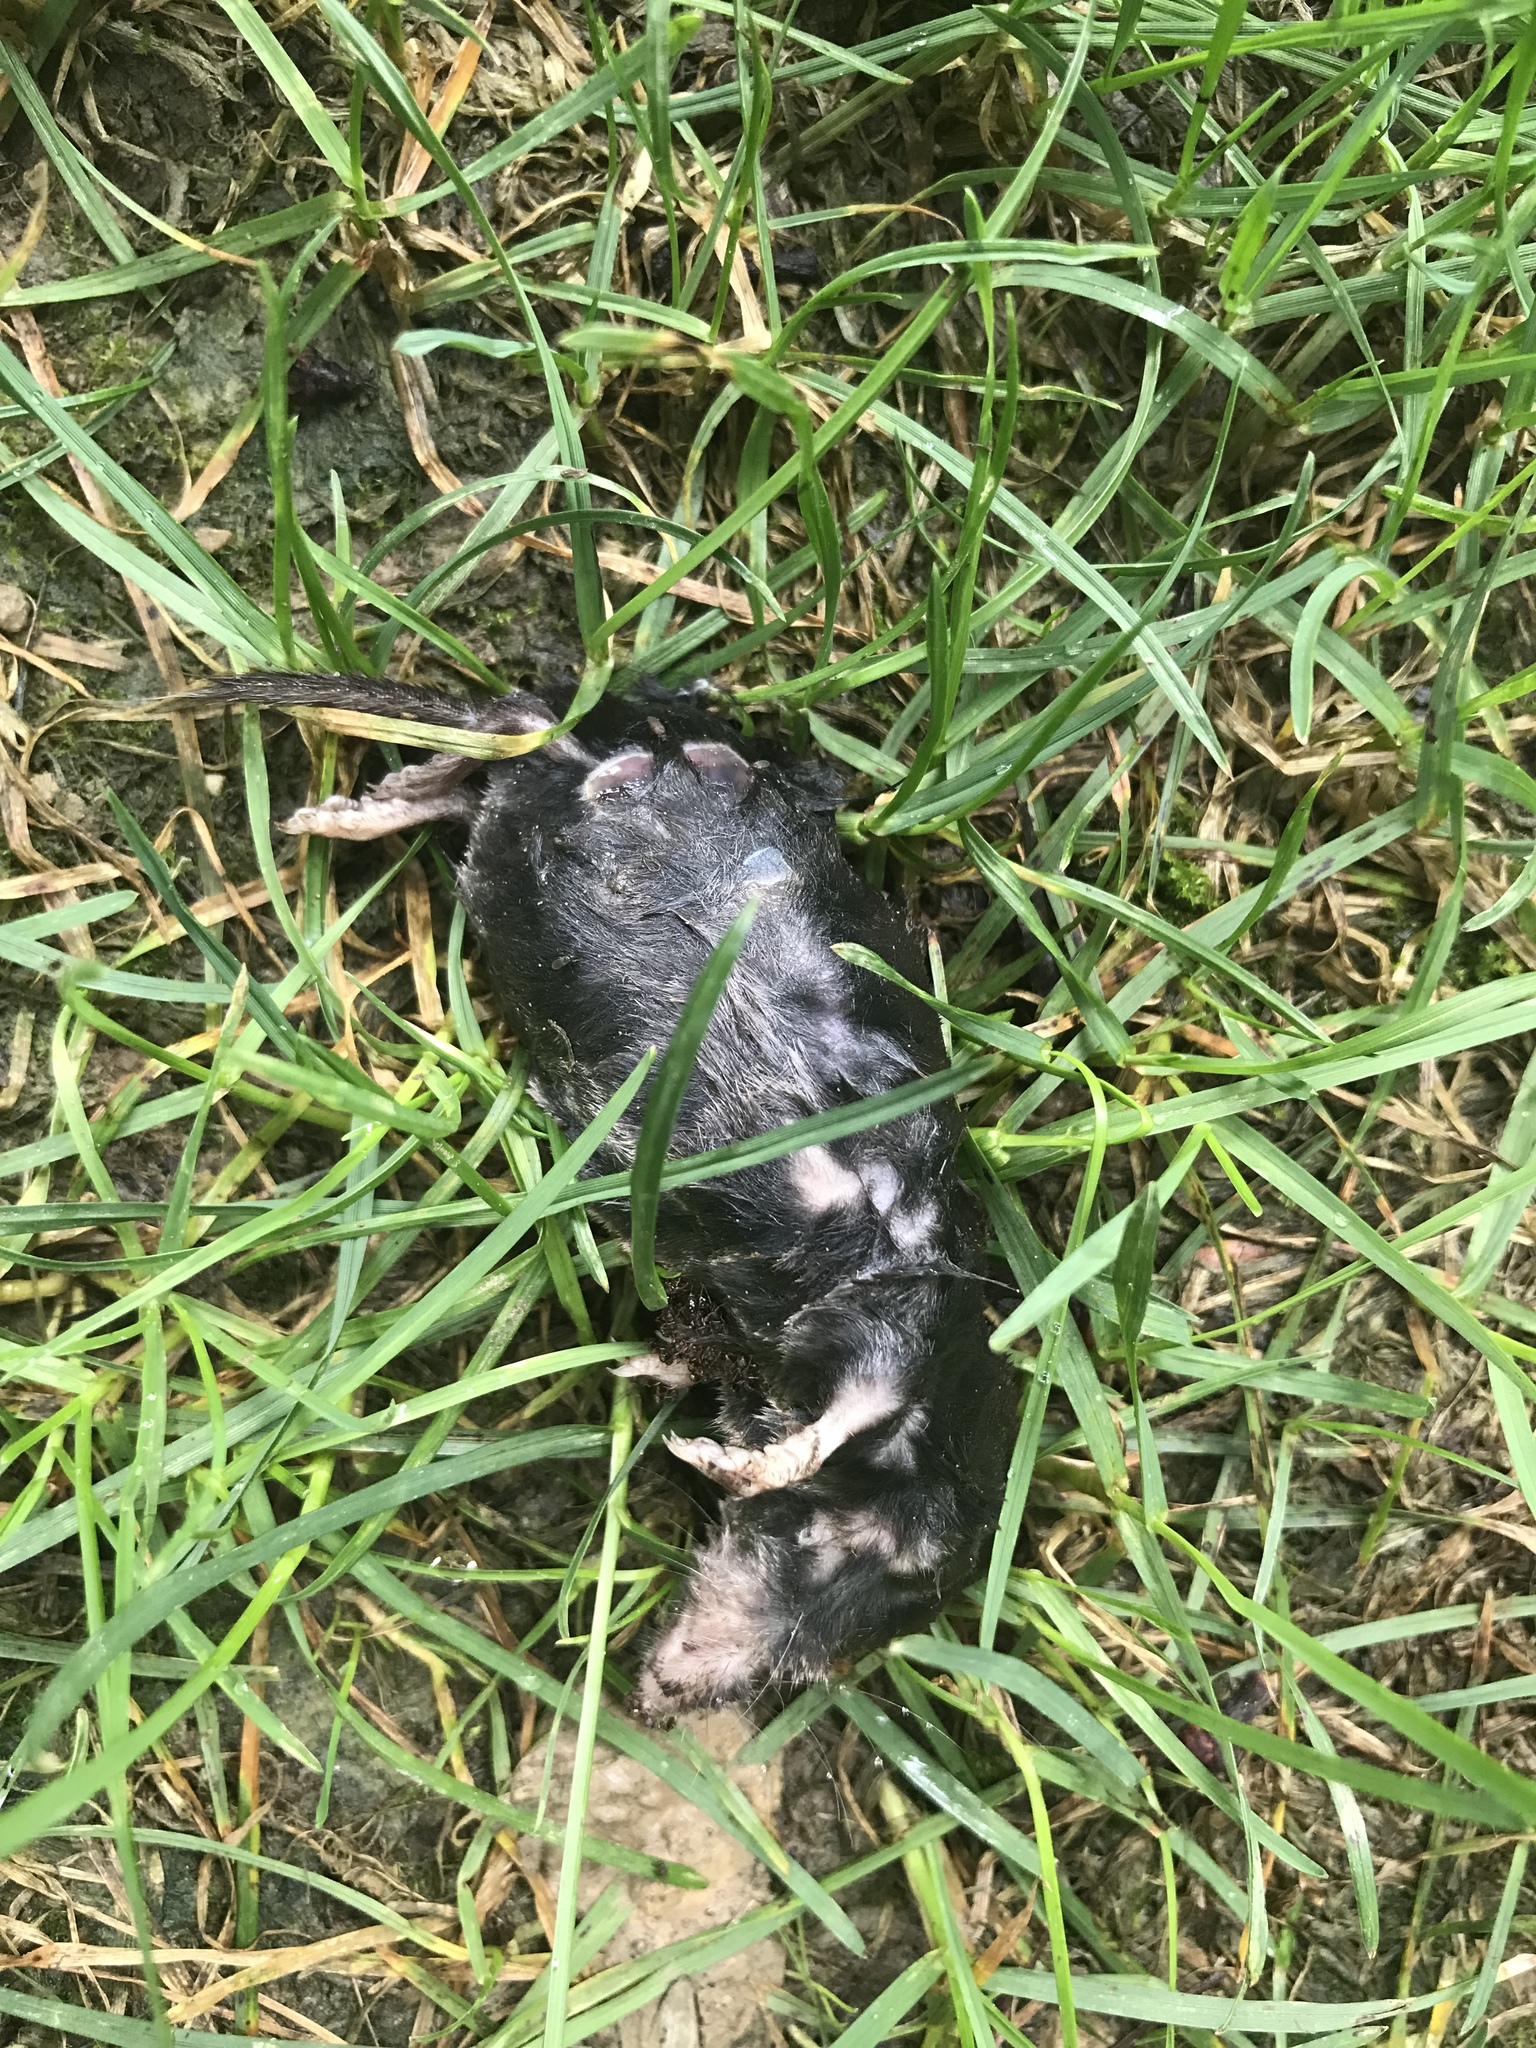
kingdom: Animalia
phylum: Chordata
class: Mammalia
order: Soricomorpha
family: Soricidae
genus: Blarina
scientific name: Blarina brevicauda
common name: Northern short-tailed shrew
